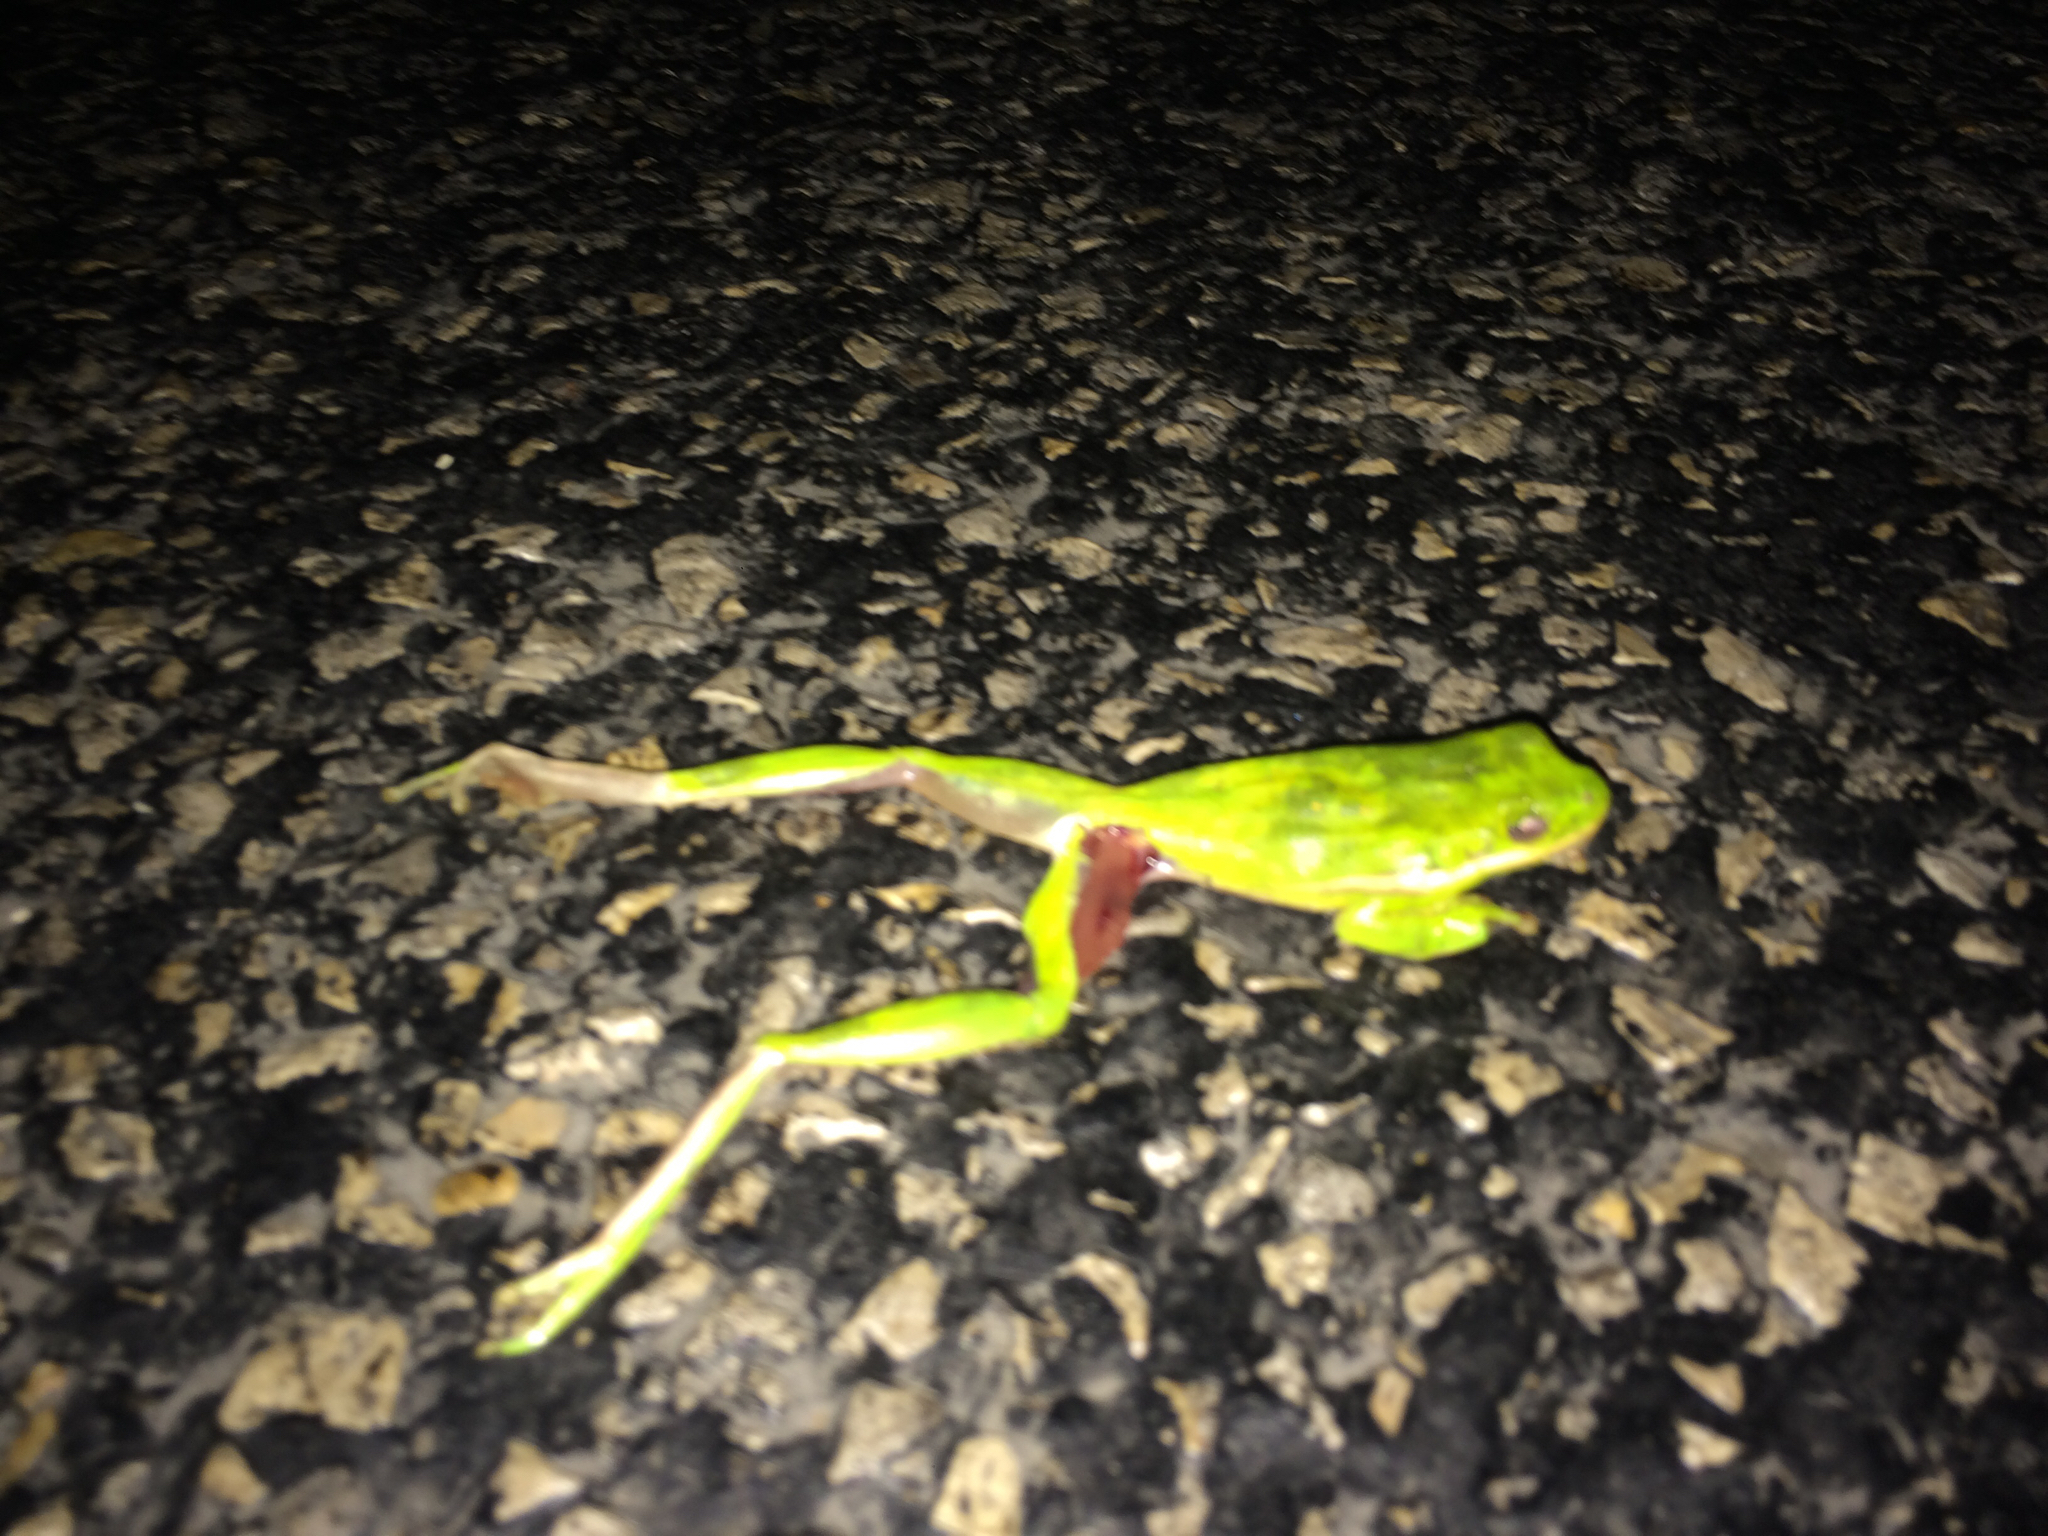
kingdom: Animalia
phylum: Chordata
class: Amphibia
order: Anura
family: Hylidae
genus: Dryophytes
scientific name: Dryophytes cinereus
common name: Green treefrog
